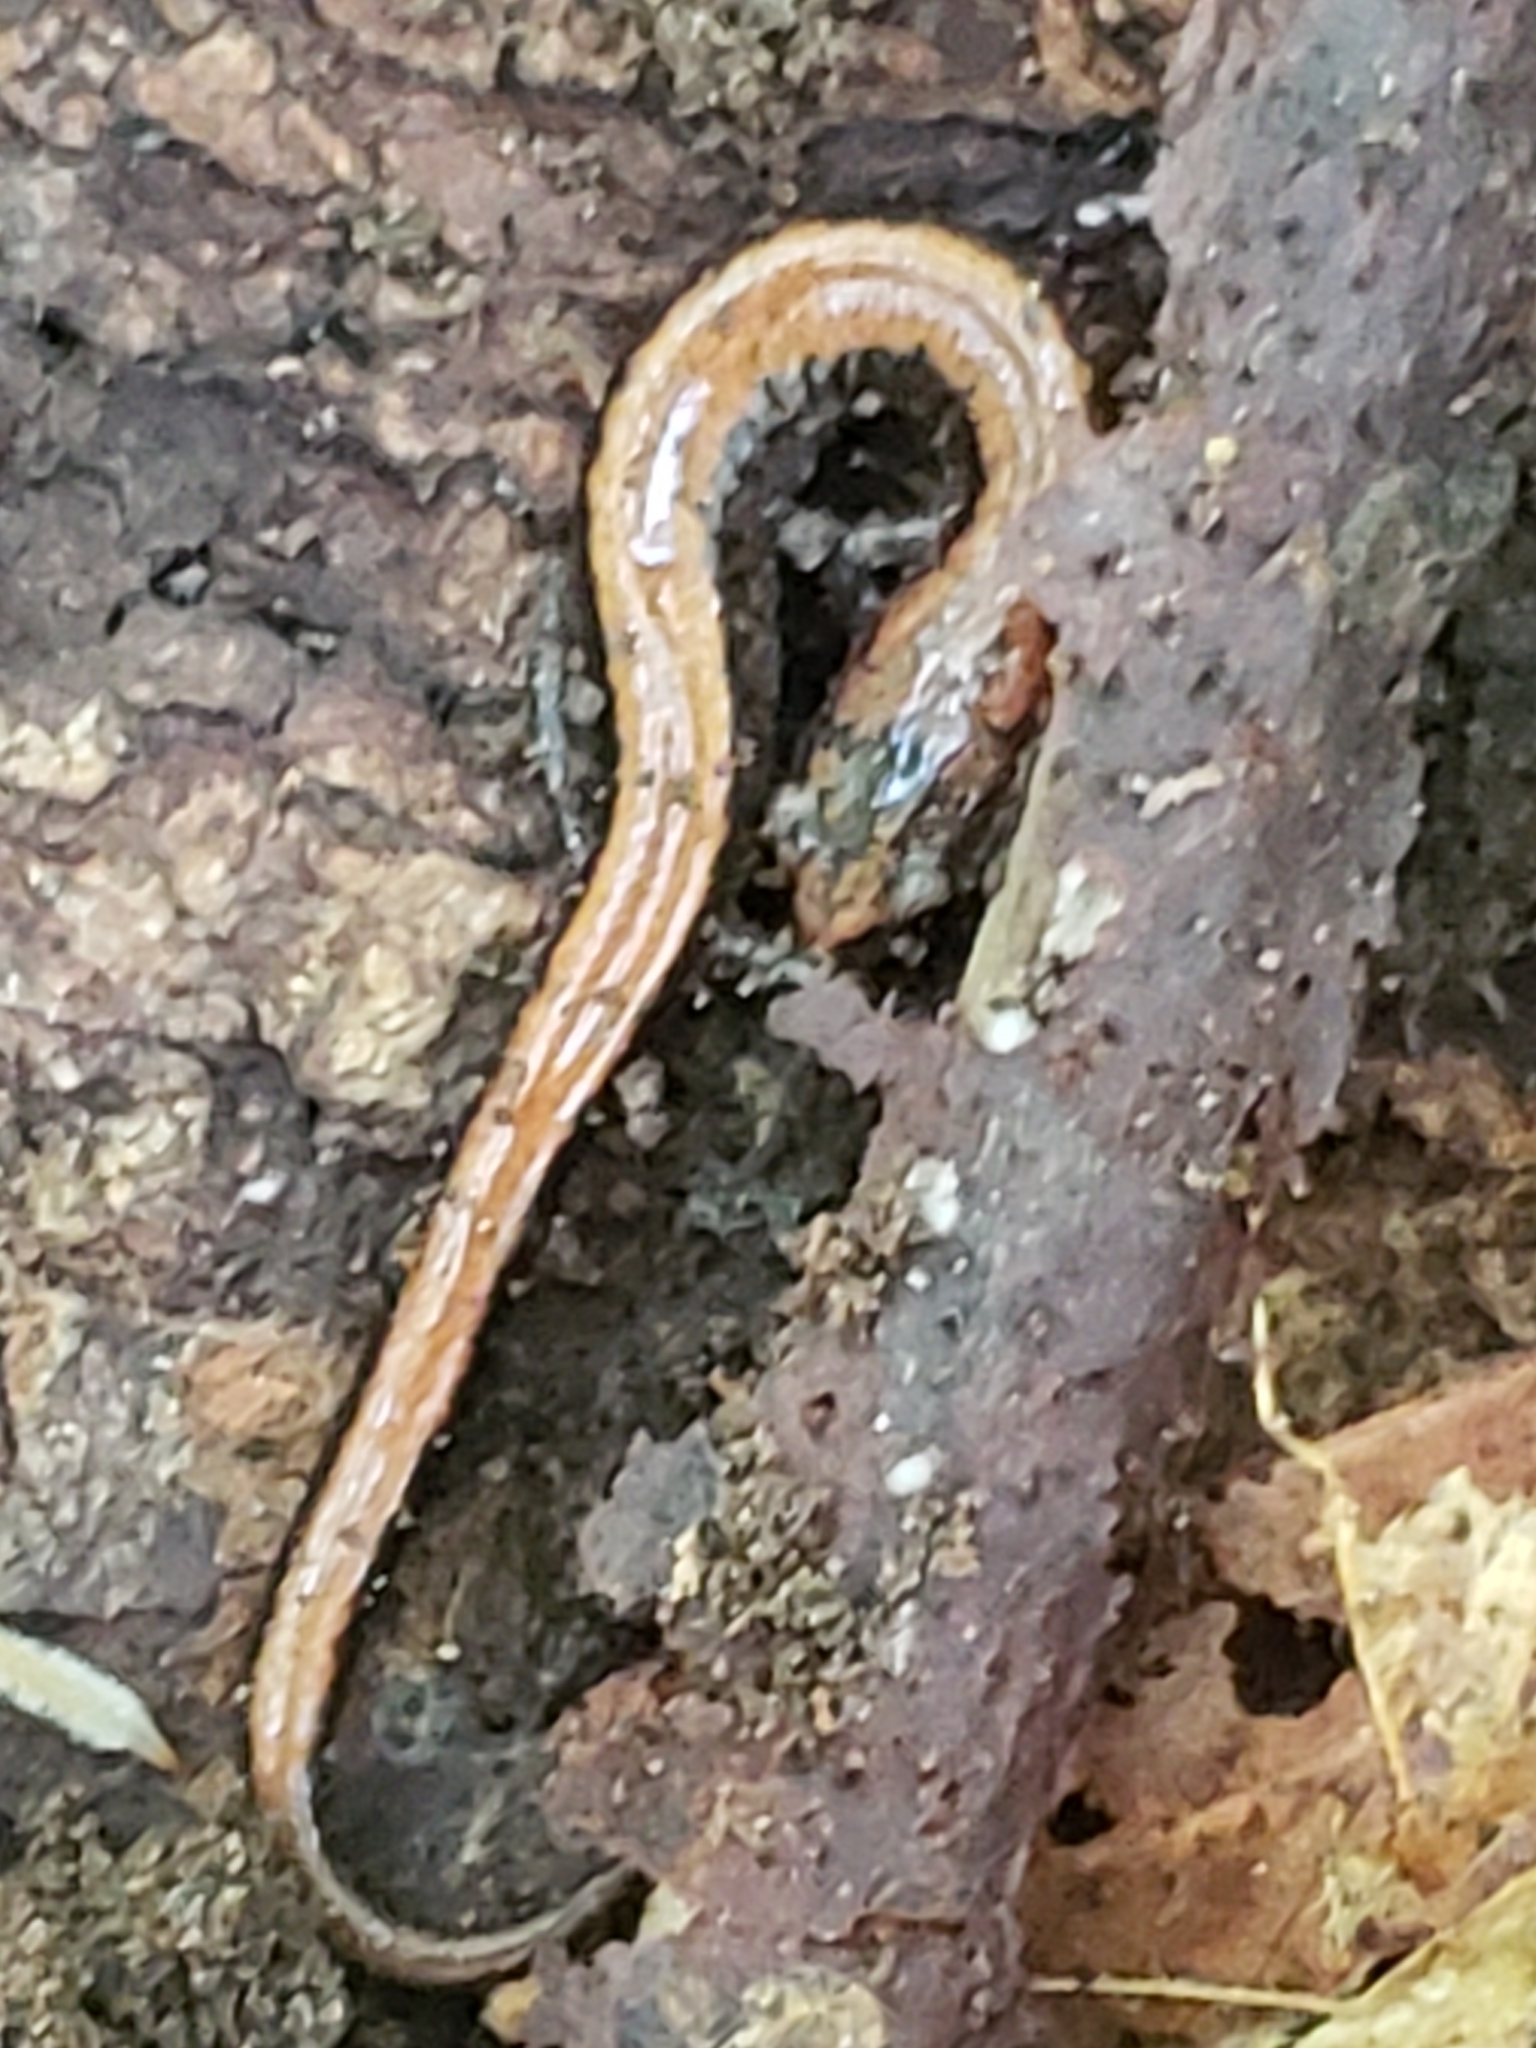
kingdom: Animalia
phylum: Chordata
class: Amphibia
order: Caudata
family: Plethodontidae
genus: Plethodon
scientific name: Plethodon cinereus
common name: Redback salamander
